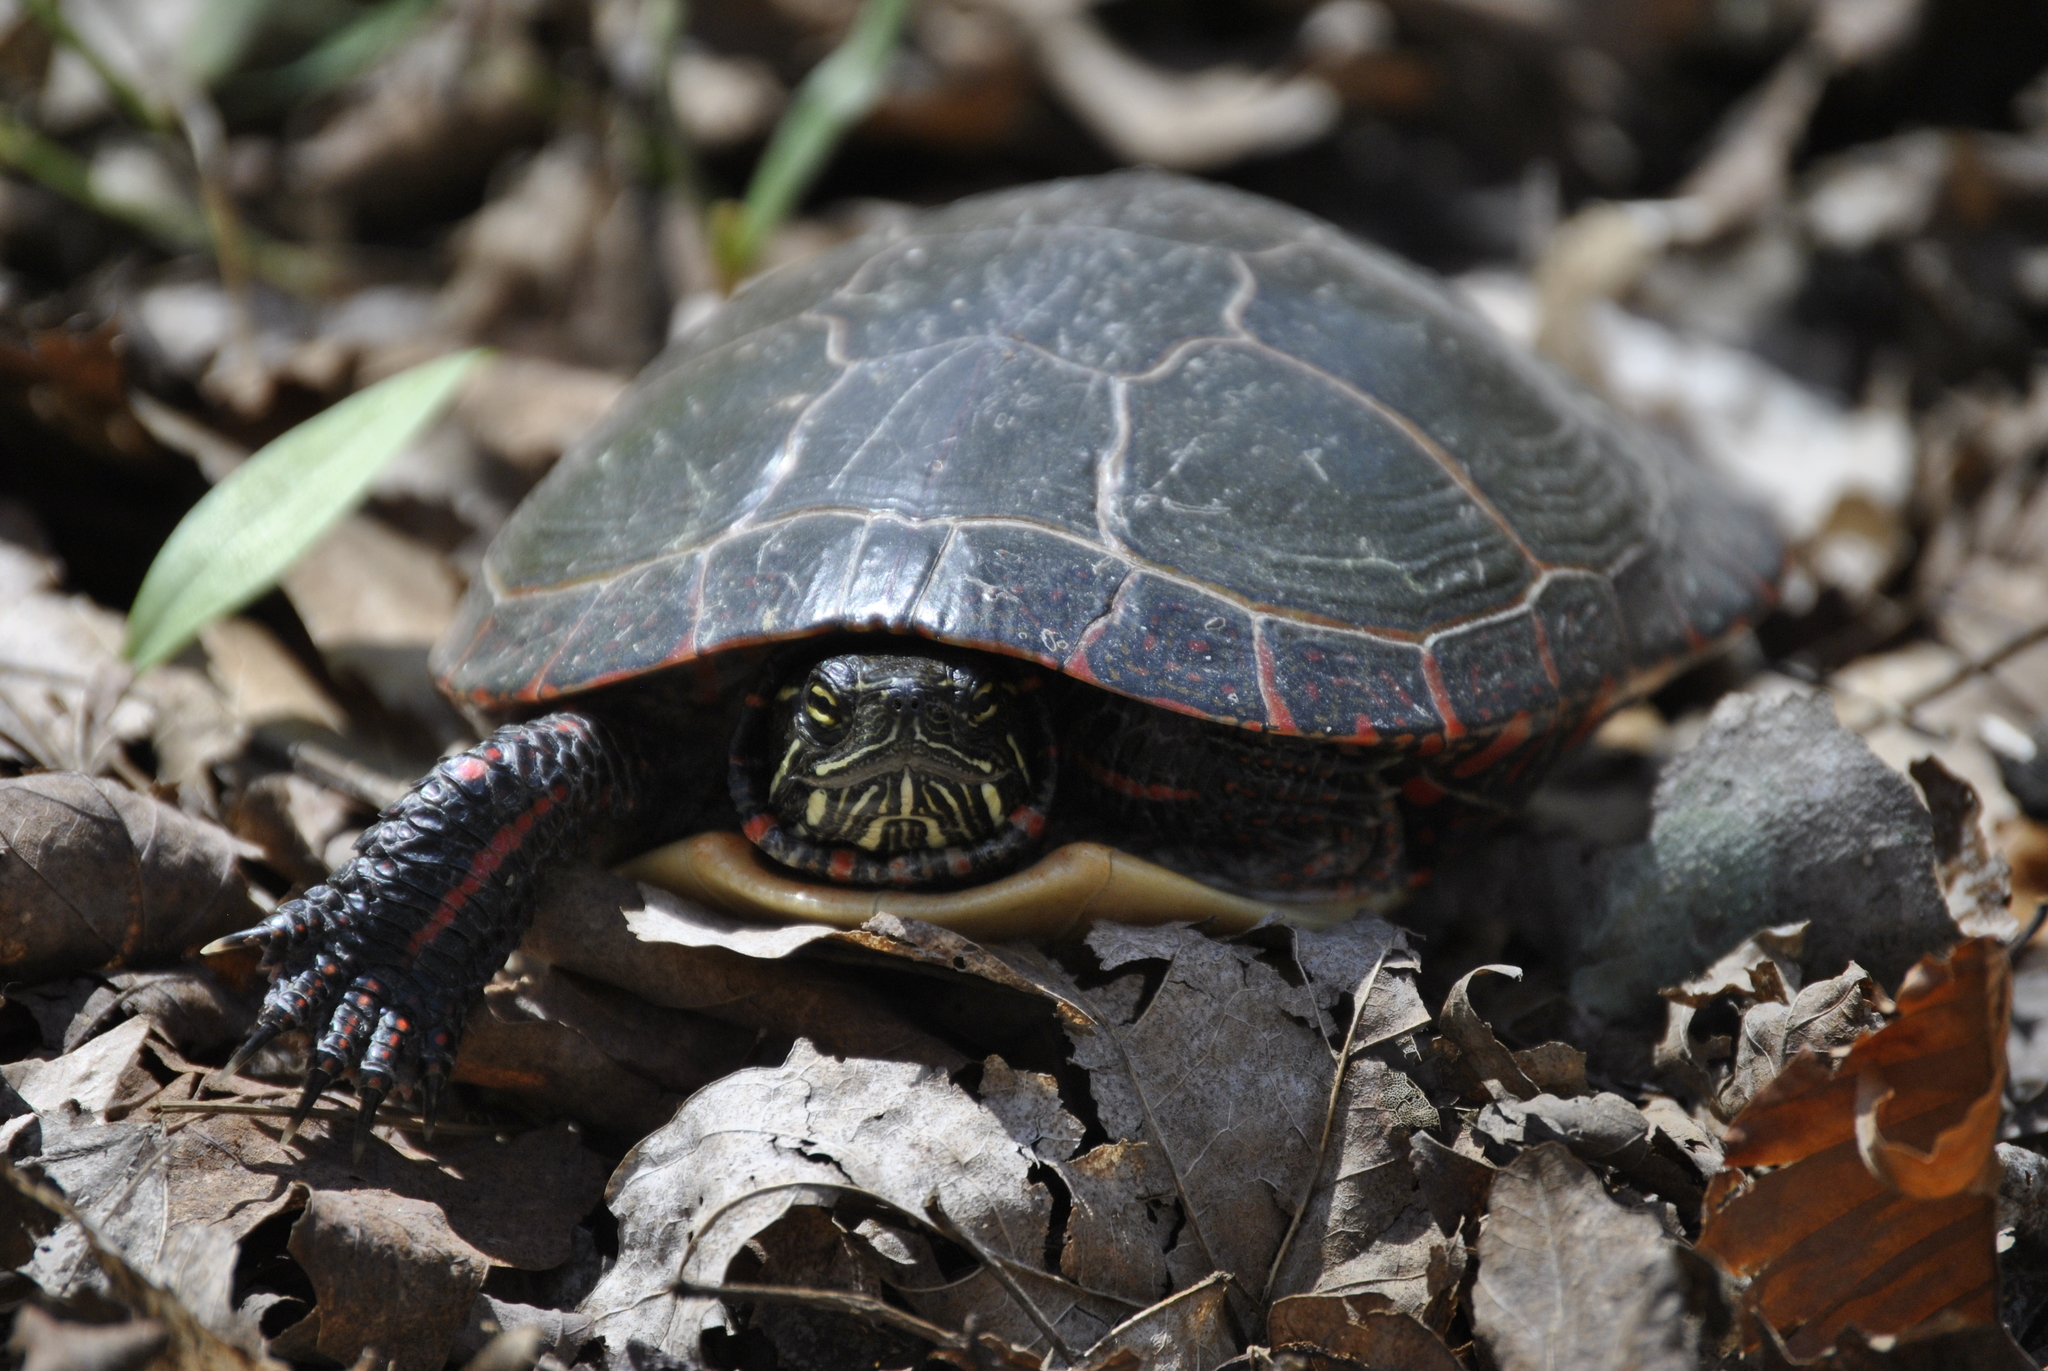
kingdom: Animalia
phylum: Chordata
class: Testudines
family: Emydidae
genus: Chrysemys
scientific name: Chrysemys picta
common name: Painted turtle
